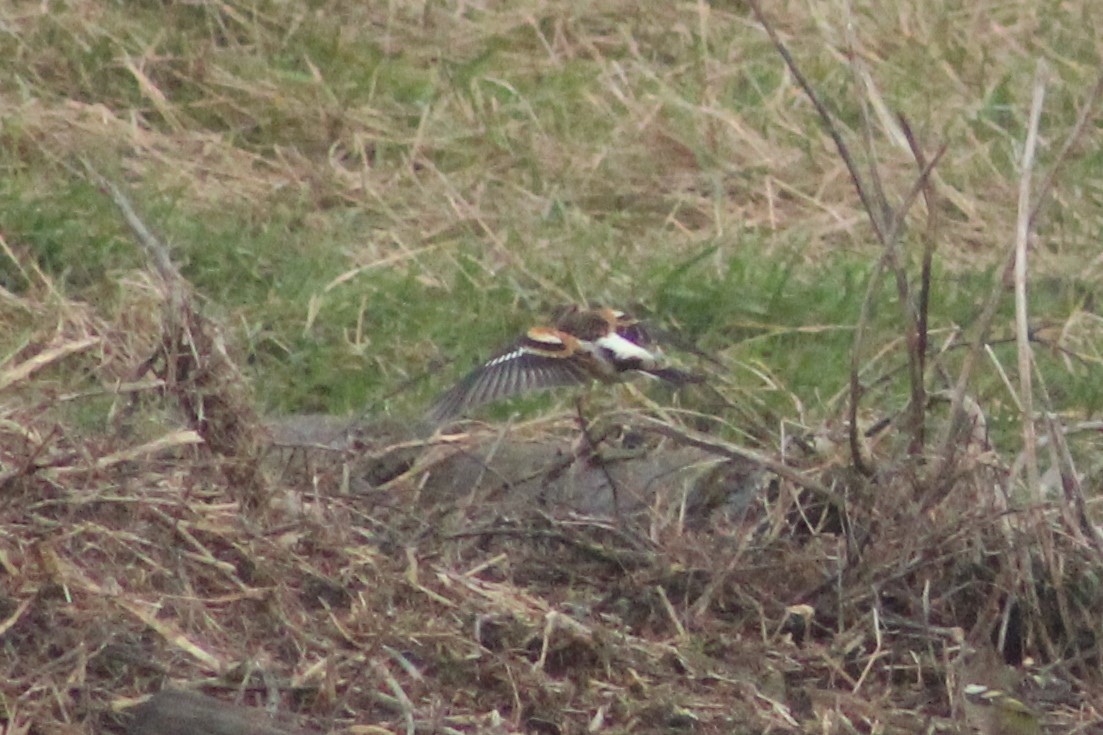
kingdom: Animalia
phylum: Chordata
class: Aves
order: Passeriformes
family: Fringillidae
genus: Fringilla
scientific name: Fringilla montifringilla
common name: Brambling
